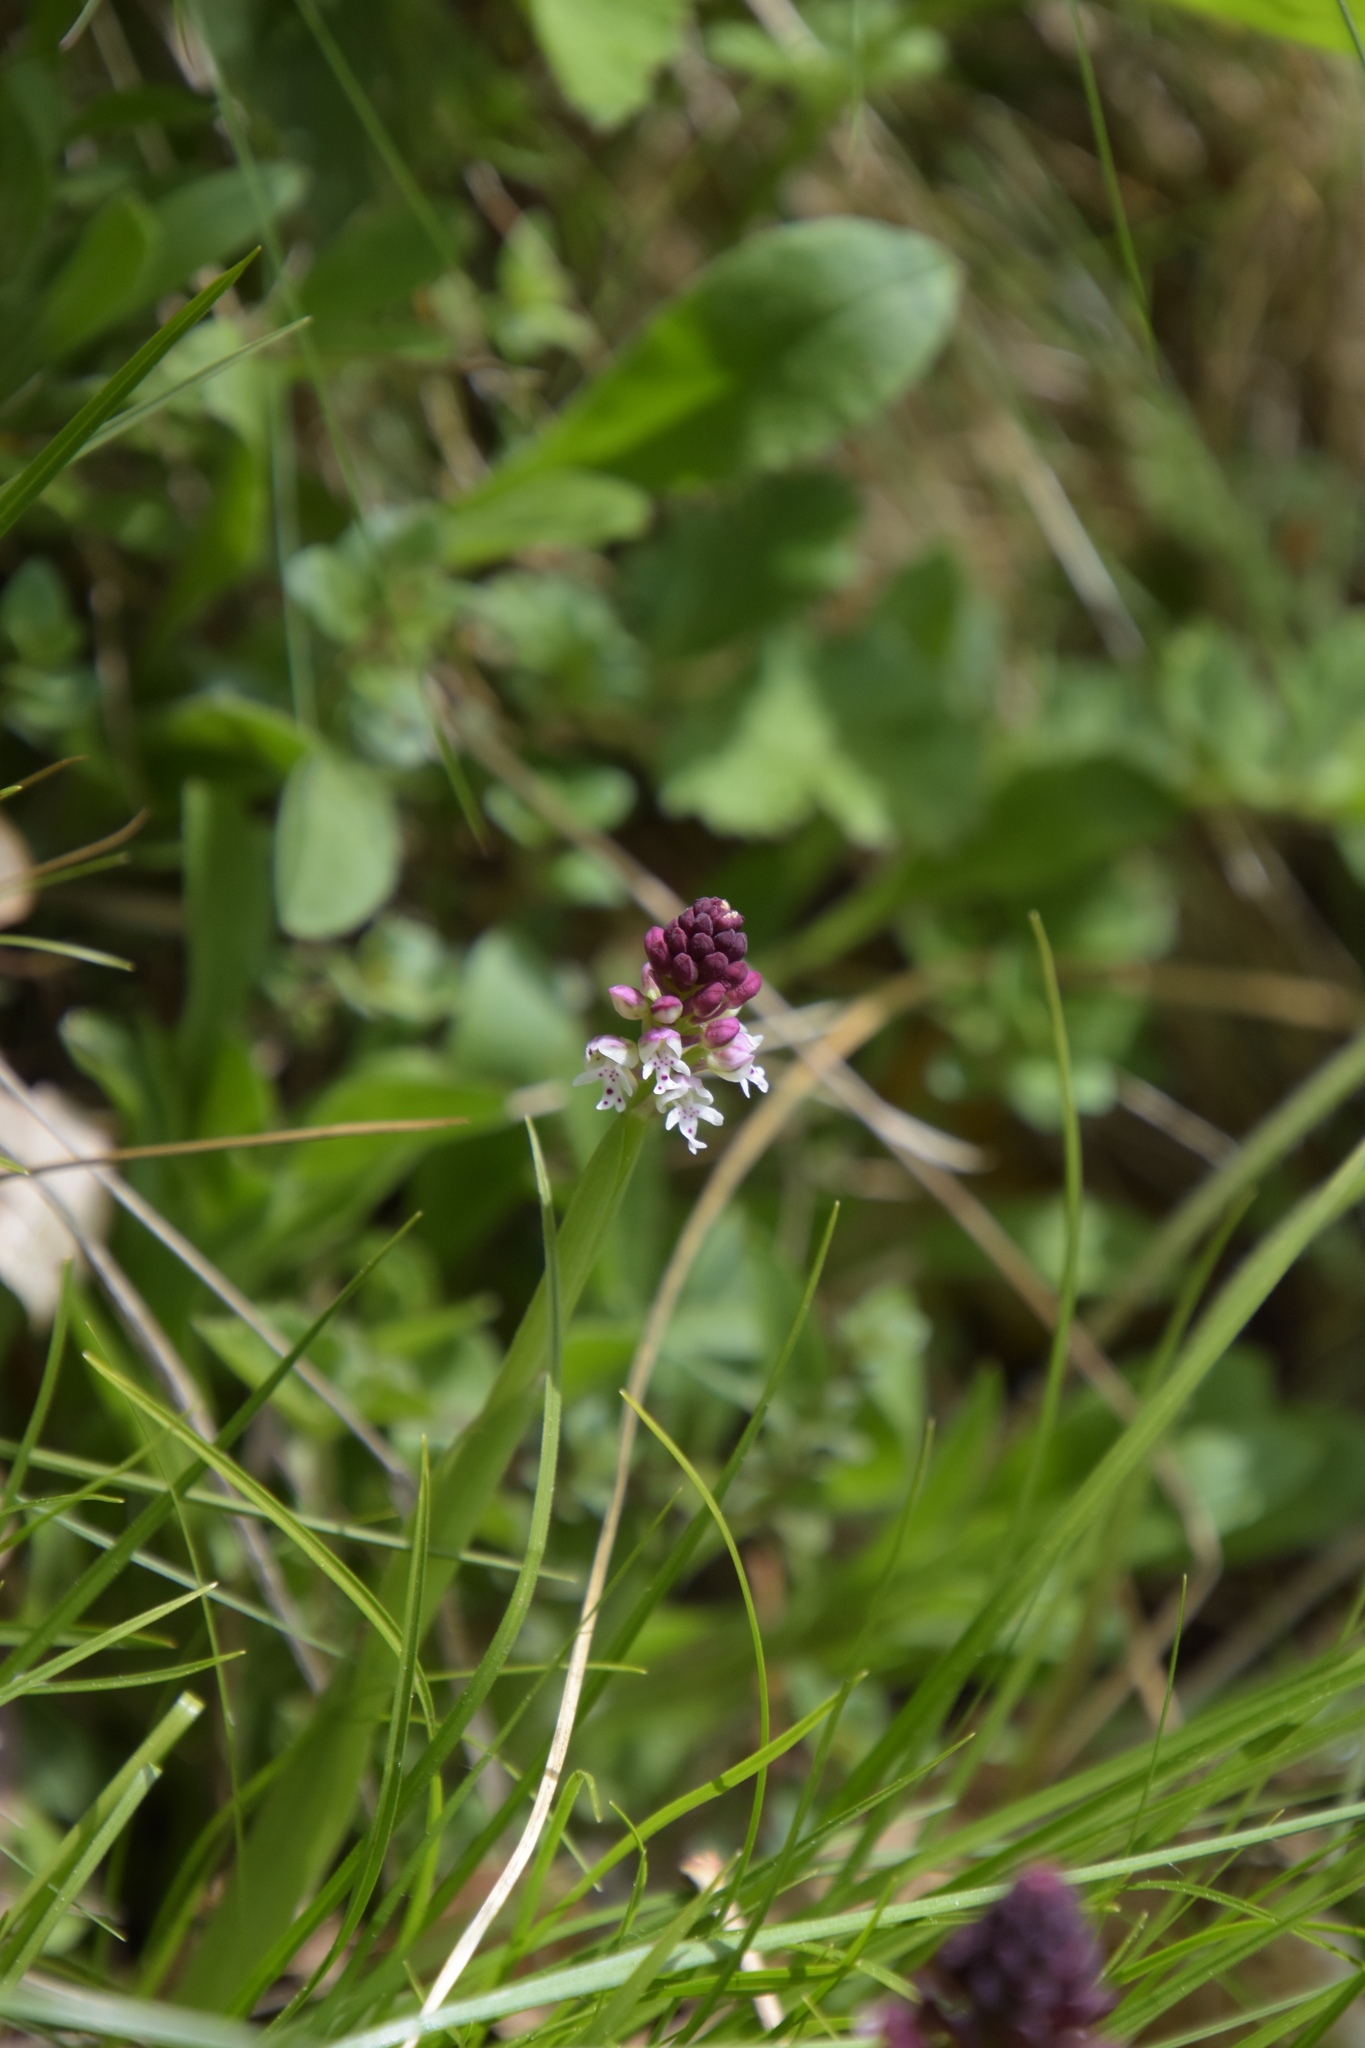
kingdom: Plantae
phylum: Tracheophyta
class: Liliopsida
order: Asparagales
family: Orchidaceae
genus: Neotinea
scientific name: Neotinea ustulata
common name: Burnt orchid
